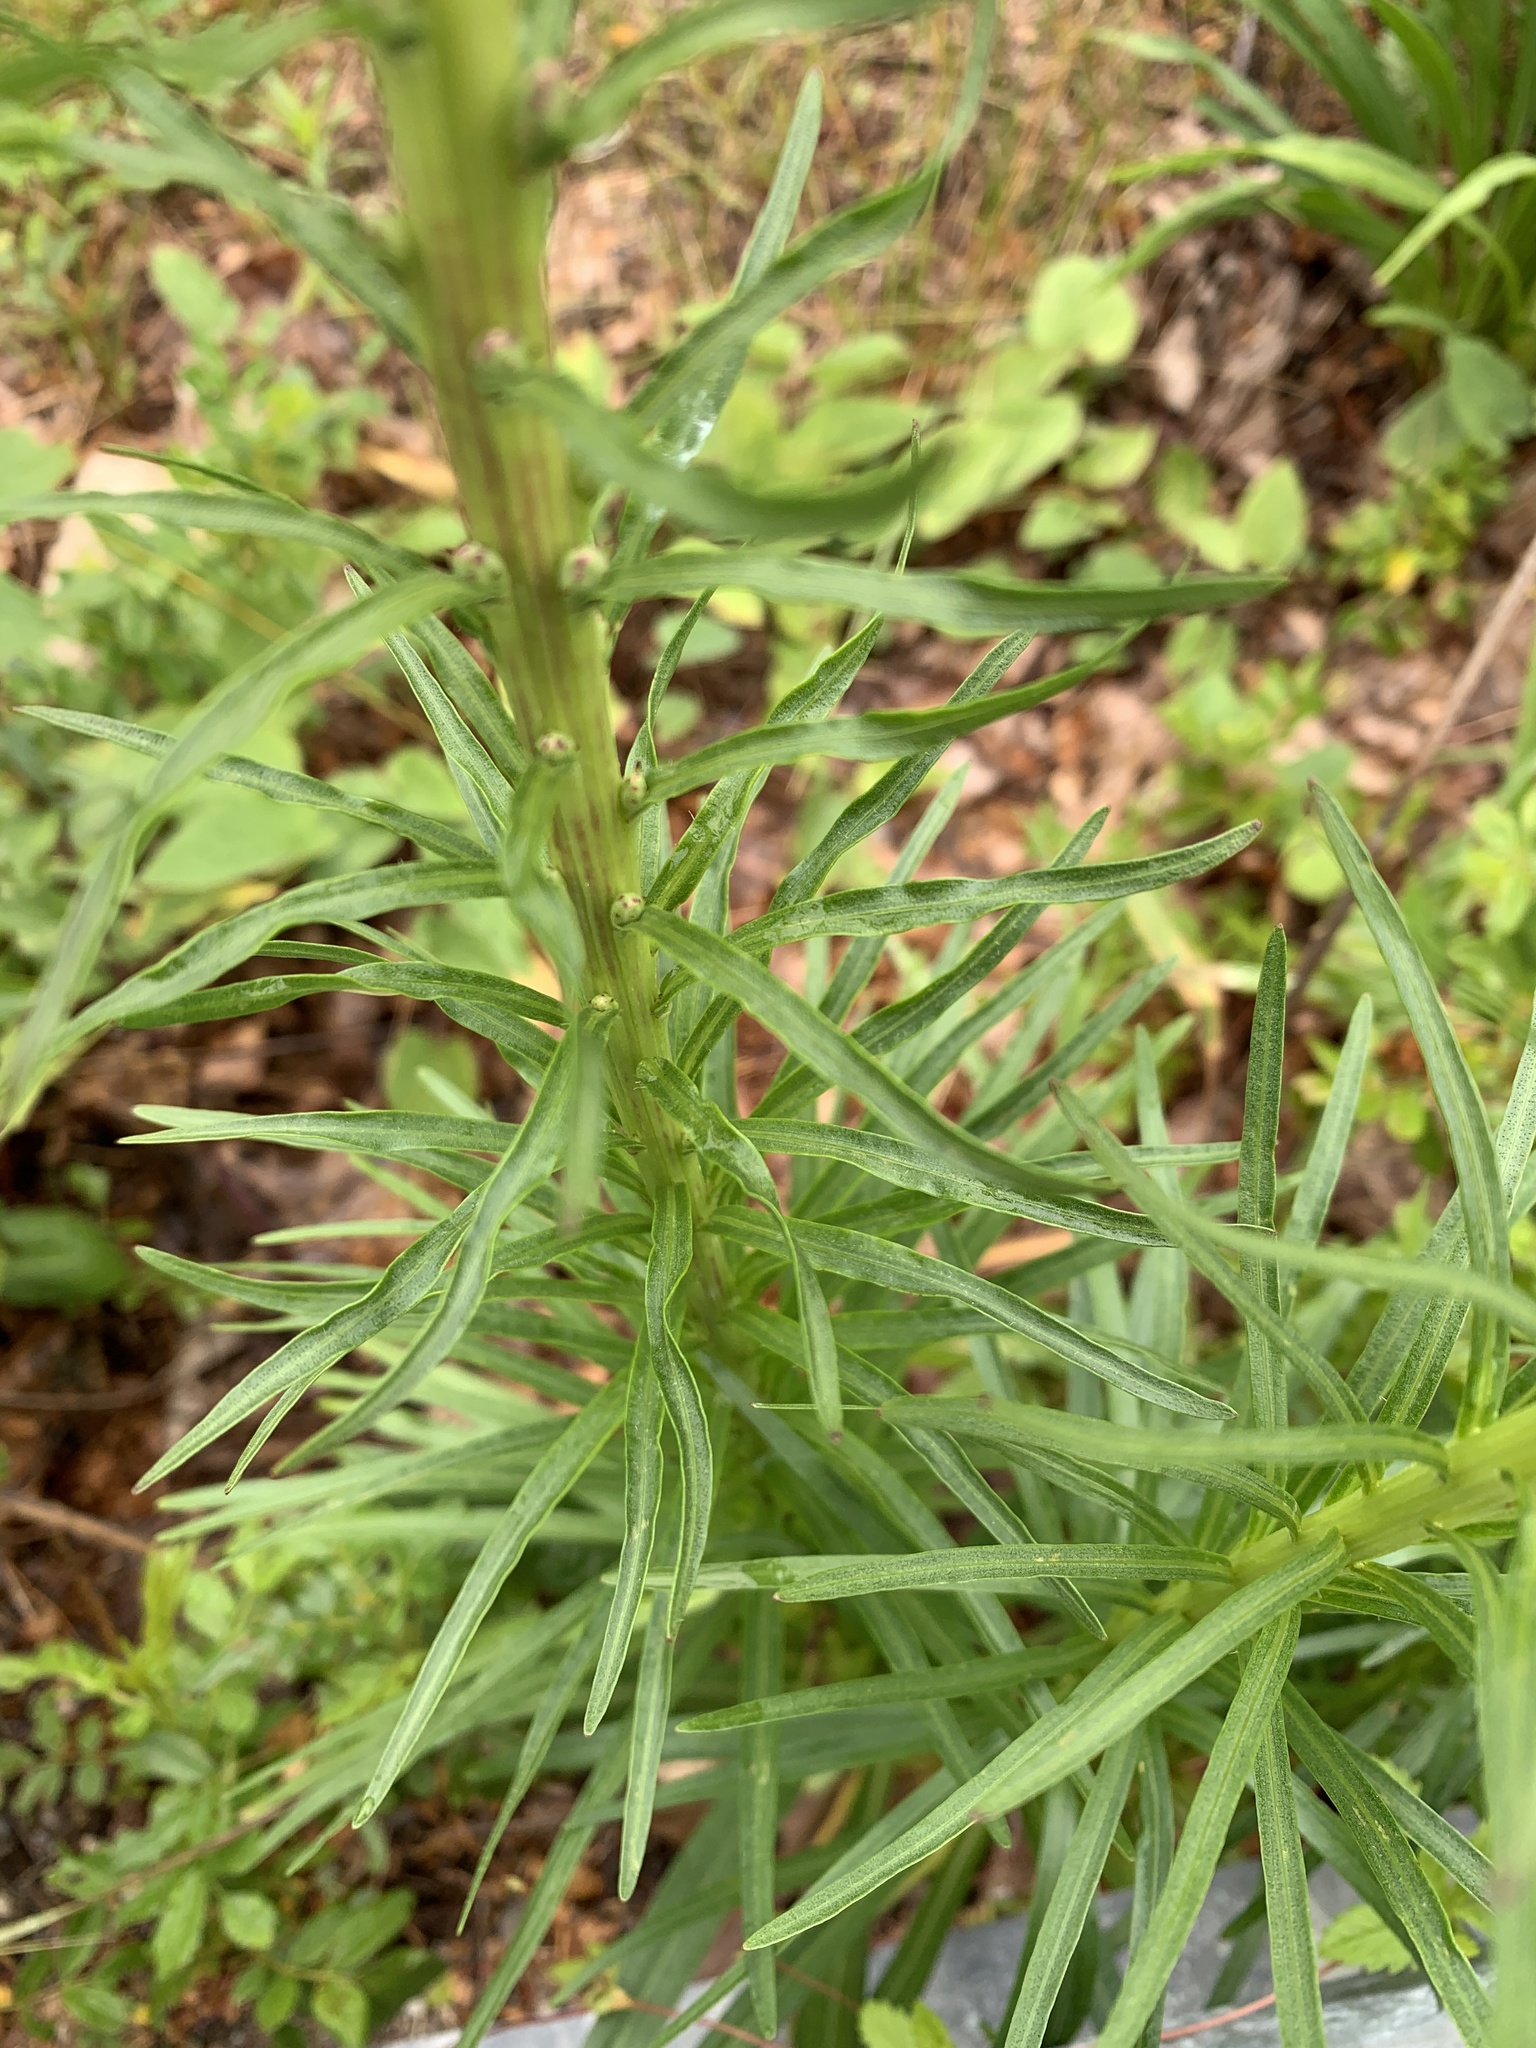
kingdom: Plantae
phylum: Tracheophyta
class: Magnoliopsida
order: Asterales
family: Asteraceae
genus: Liatris
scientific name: Liatris spicata
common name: Florist gayfeather
